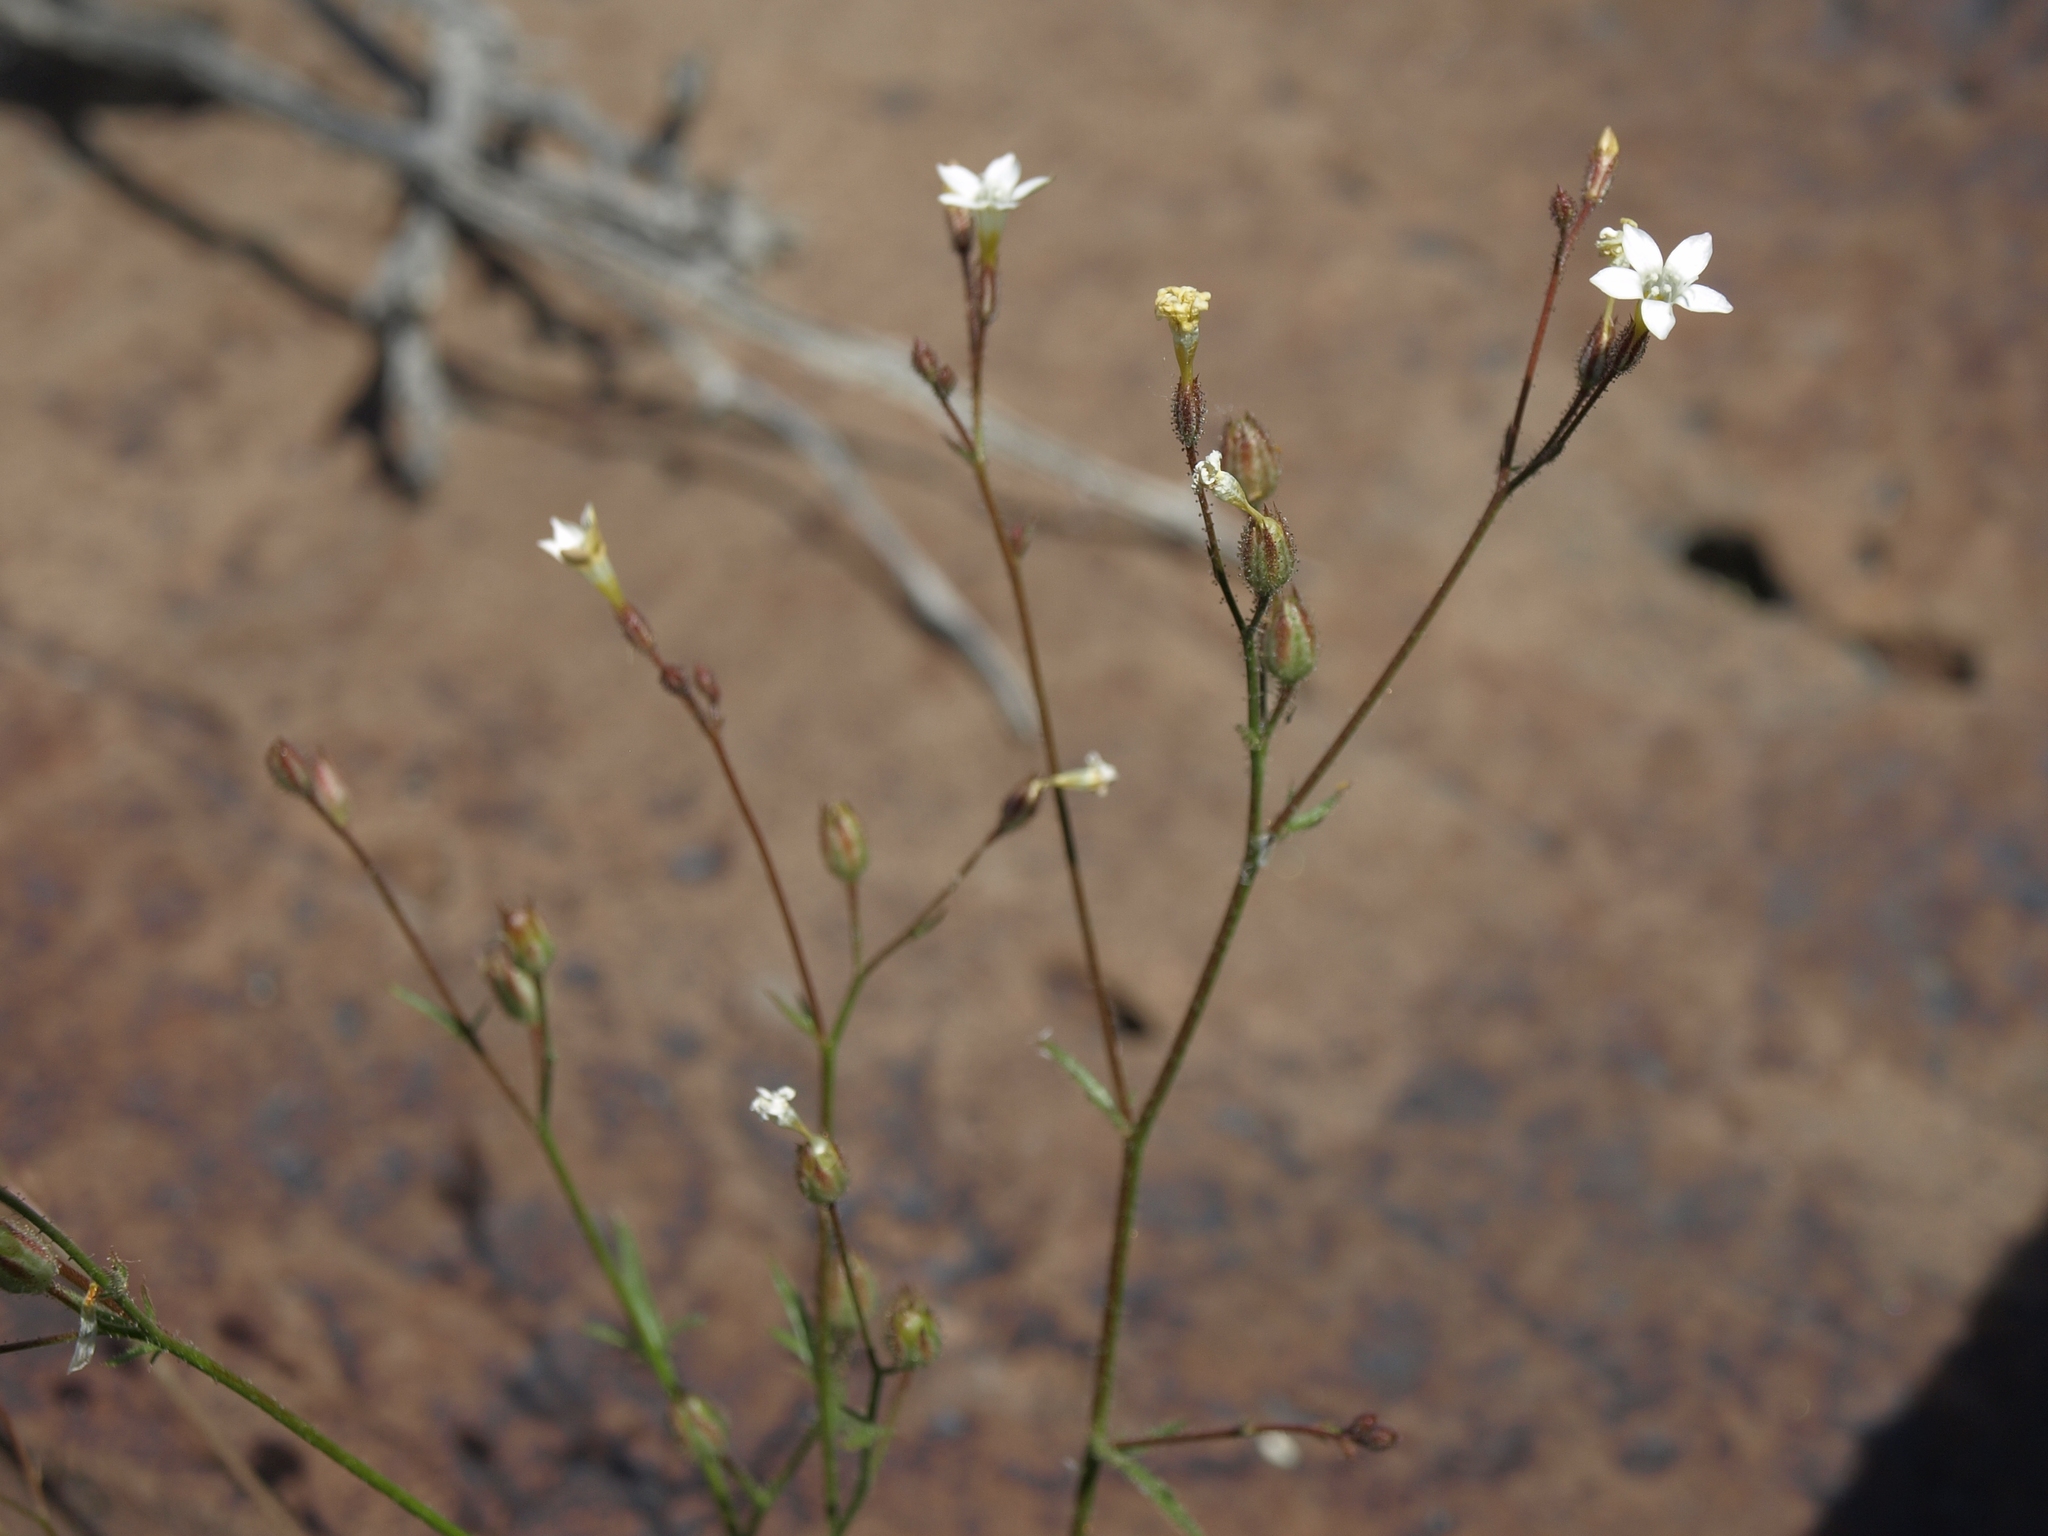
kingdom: Plantae
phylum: Tracheophyta
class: Magnoliopsida
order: Ericales
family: Polemoniaceae
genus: Gilia
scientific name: Gilia stellata
